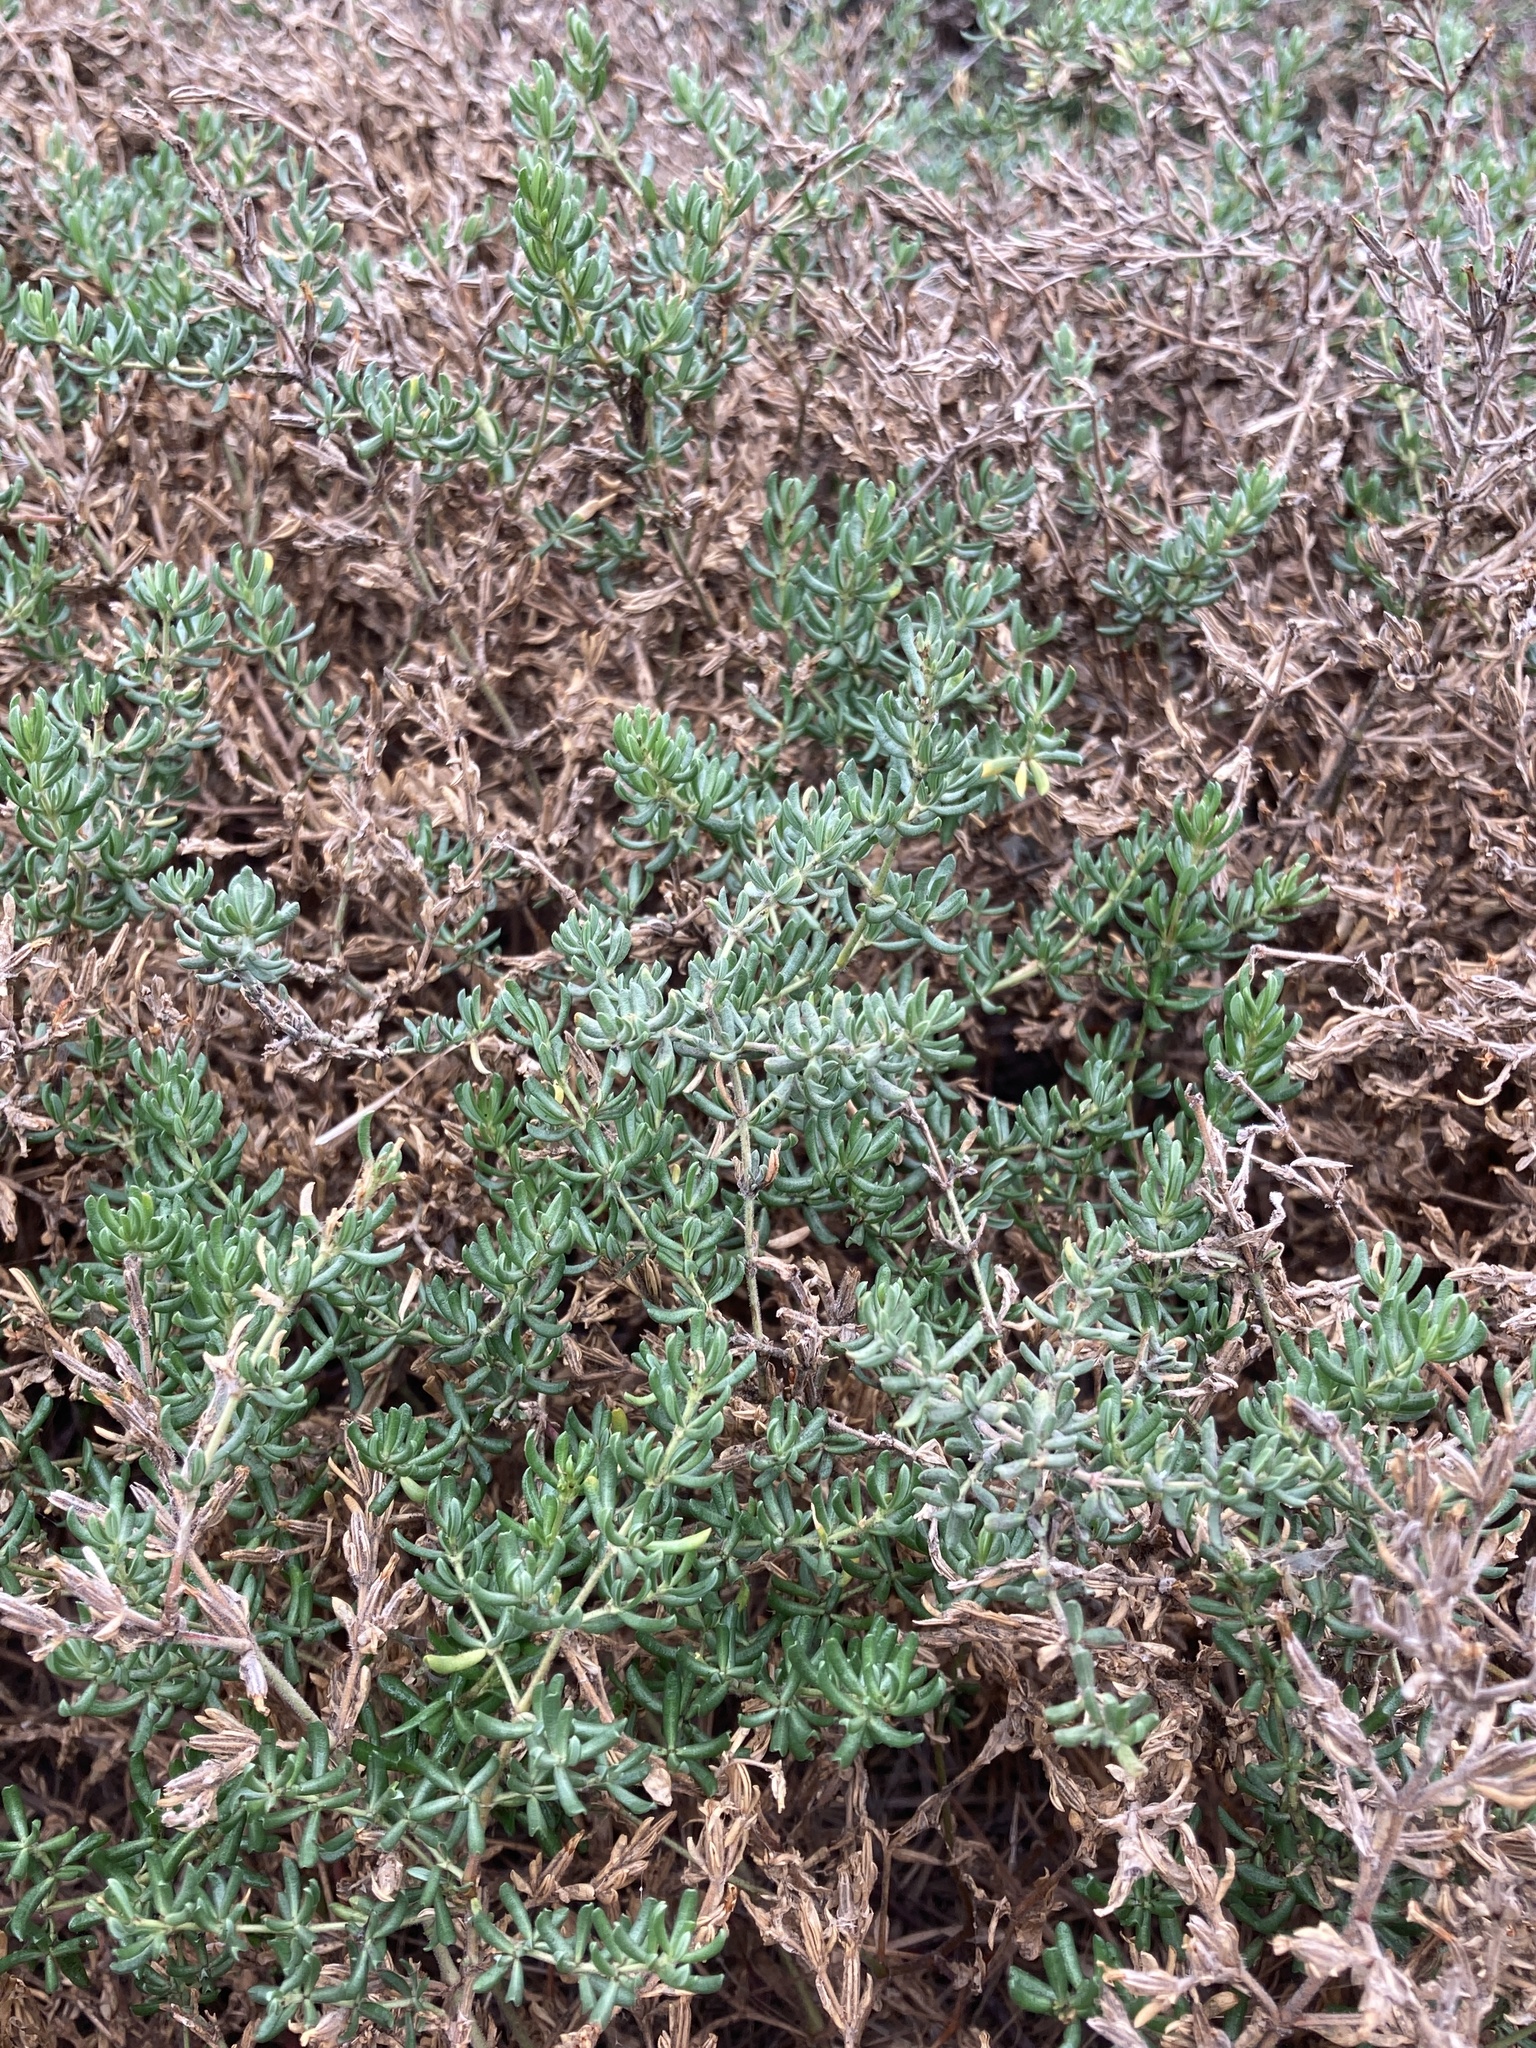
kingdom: Plantae
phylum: Tracheophyta
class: Magnoliopsida
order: Caryophyllales
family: Frankeniaceae
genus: Frankenia
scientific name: Frankenia salina
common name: Alkali seaheath
